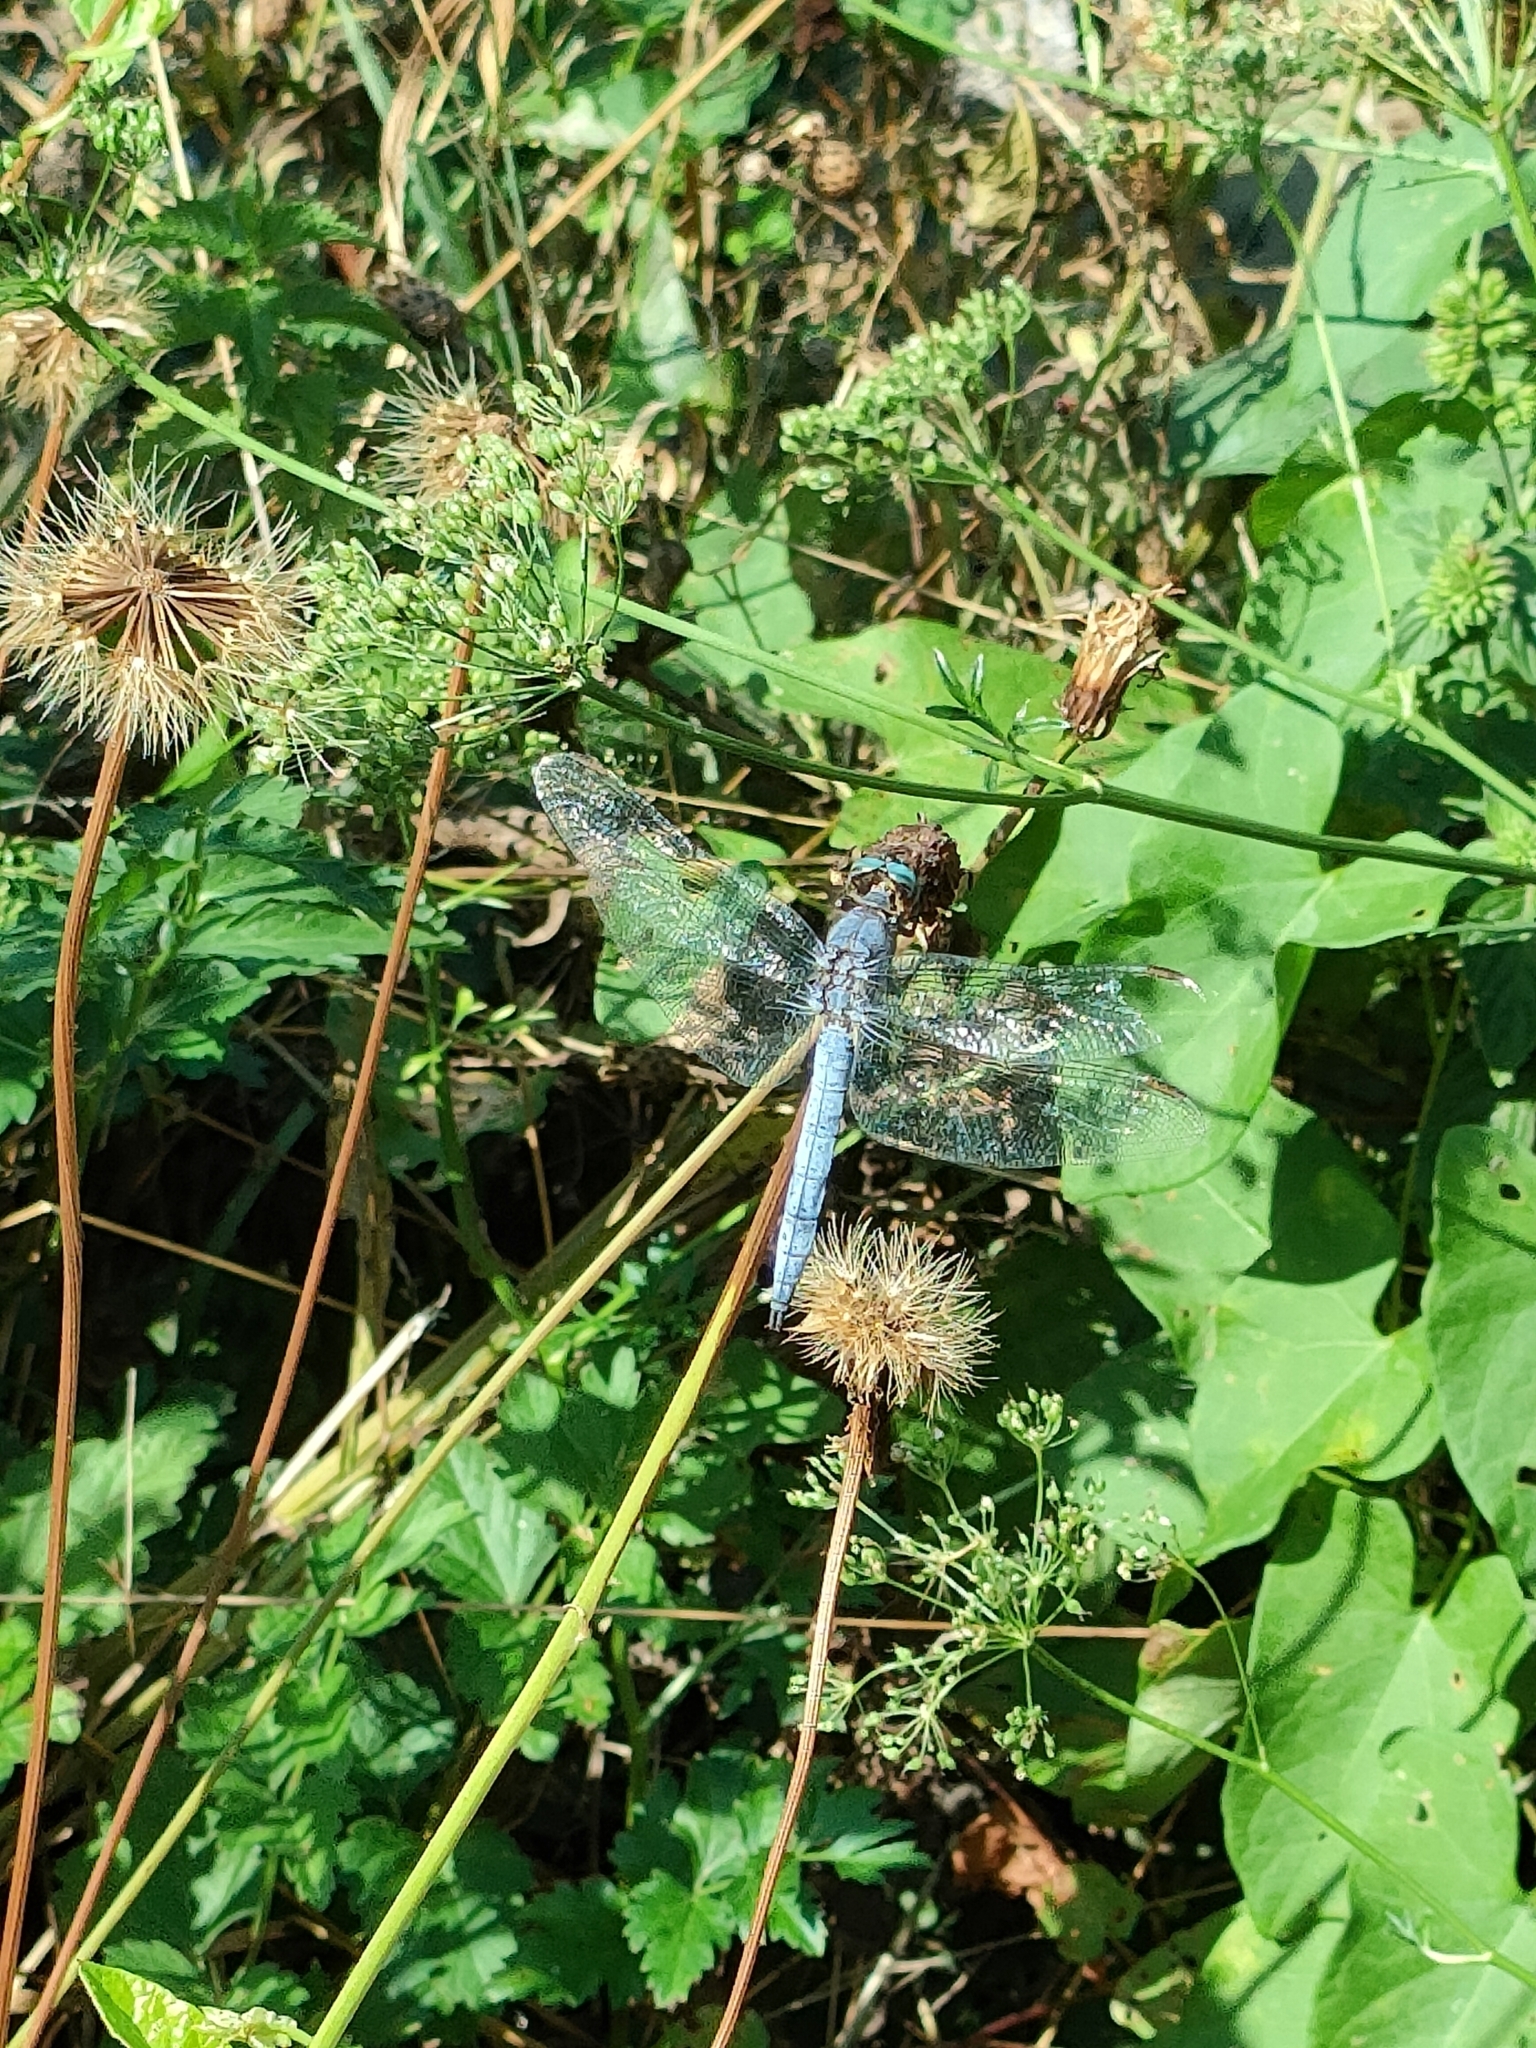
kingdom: Animalia
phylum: Arthropoda
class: Insecta
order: Odonata
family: Libellulidae
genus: Orthetrum
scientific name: Orthetrum coerulescens
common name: Keeled skimmer
